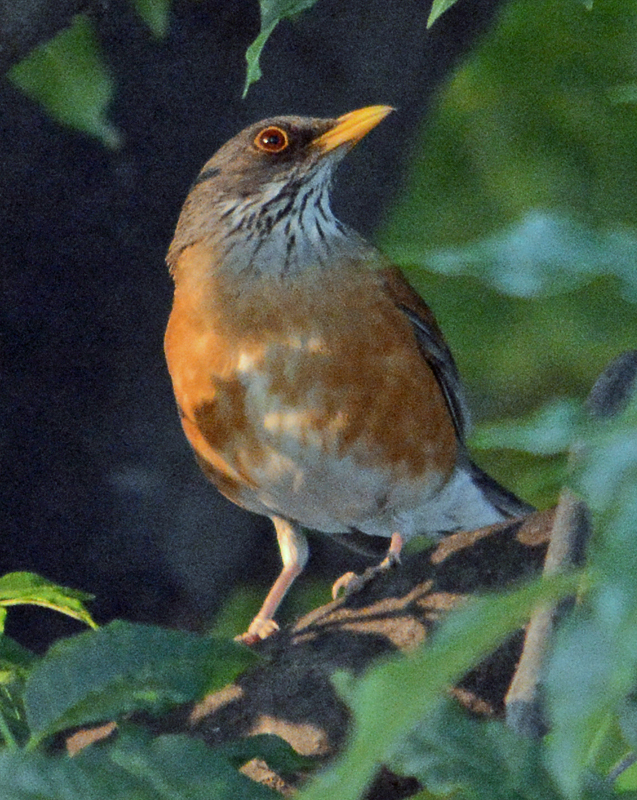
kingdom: Animalia
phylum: Chordata
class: Aves
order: Passeriformes
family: Turdidae
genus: Turdus
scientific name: Turdus rufopalliatus
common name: Rufous-backed robin
